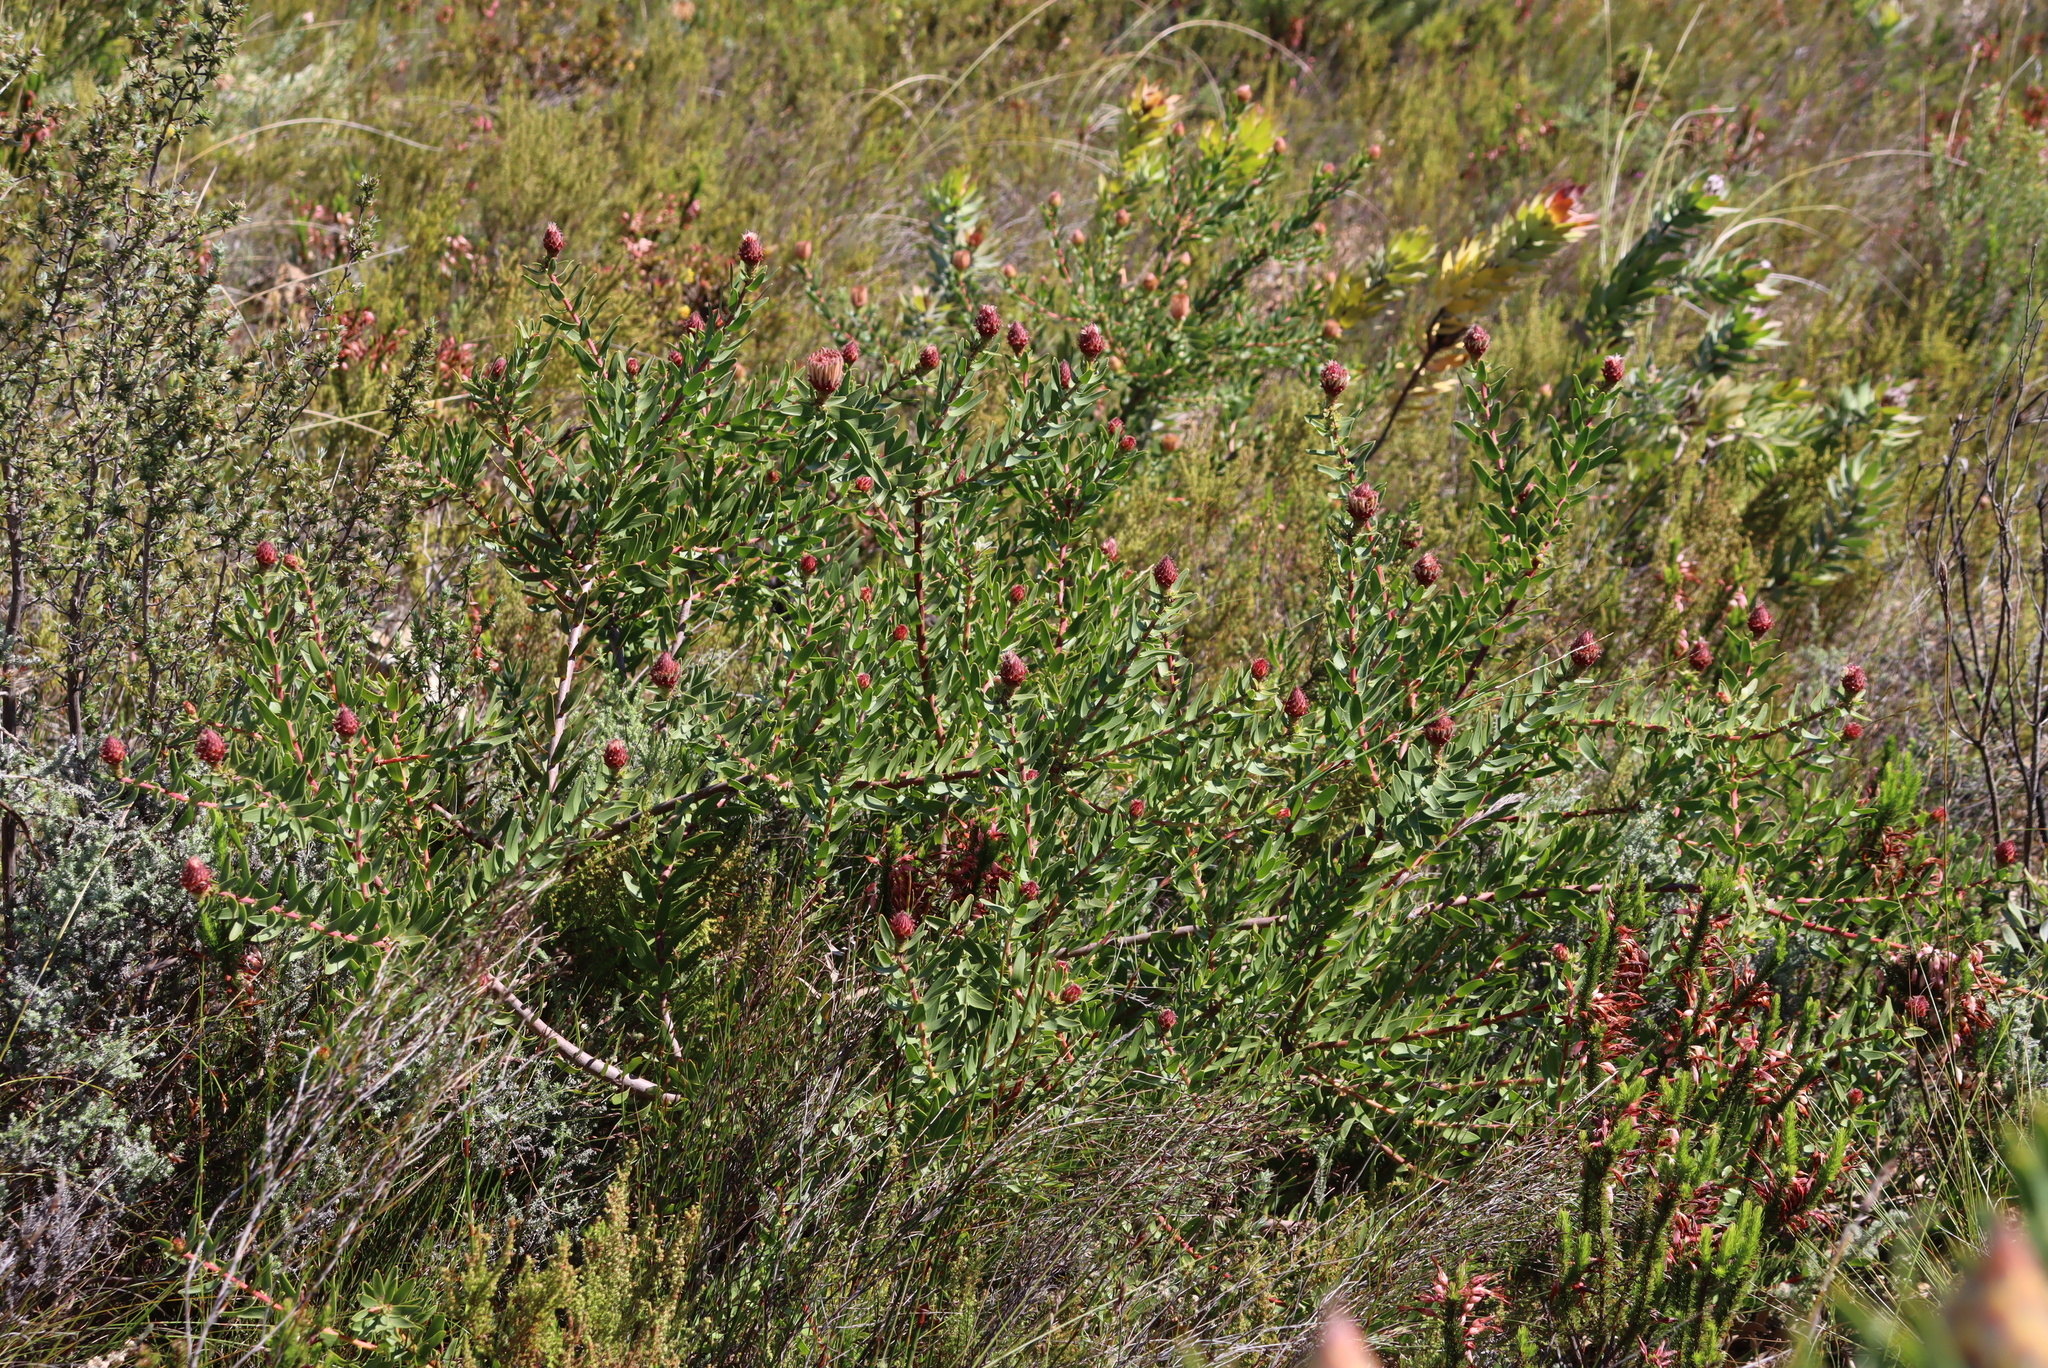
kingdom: Plantae
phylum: Tracheophyta
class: Magnoliopsida
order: Proteales
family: Proteaceae
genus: Leucospermum
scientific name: Leucospermum tottum
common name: Ribbon pincushion
